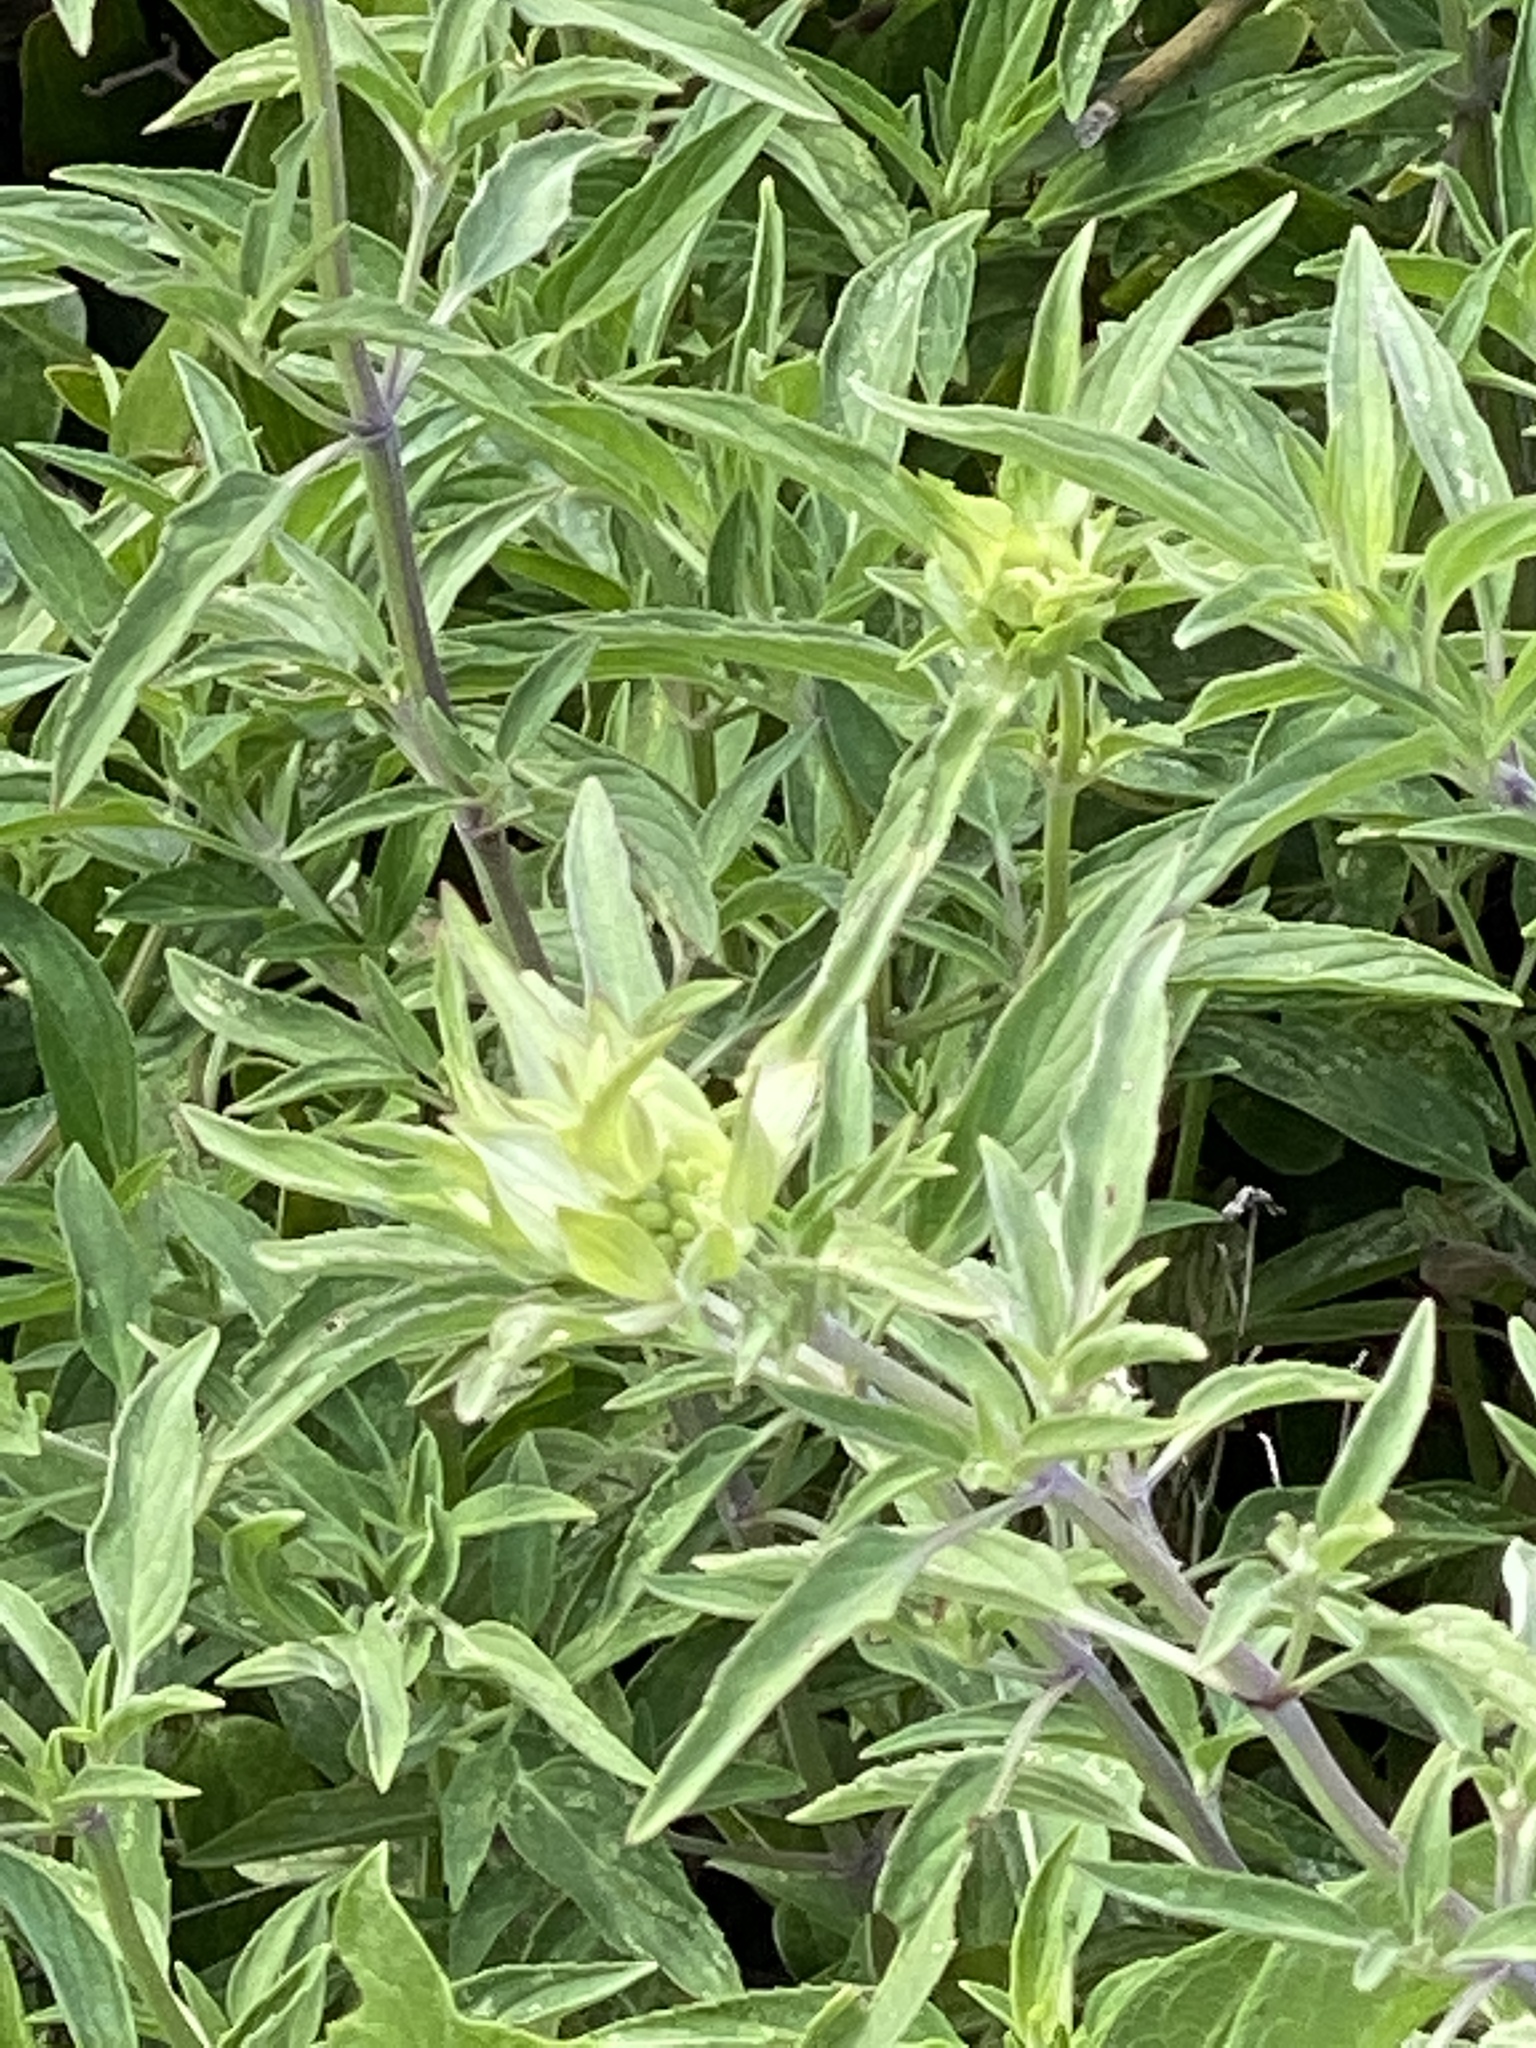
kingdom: Plantae
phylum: Tracheophyta
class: Magnoliopsida
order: Lamiales
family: Lamiaceae
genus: Monarda
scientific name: Monarda punctata
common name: Dotted monarda
